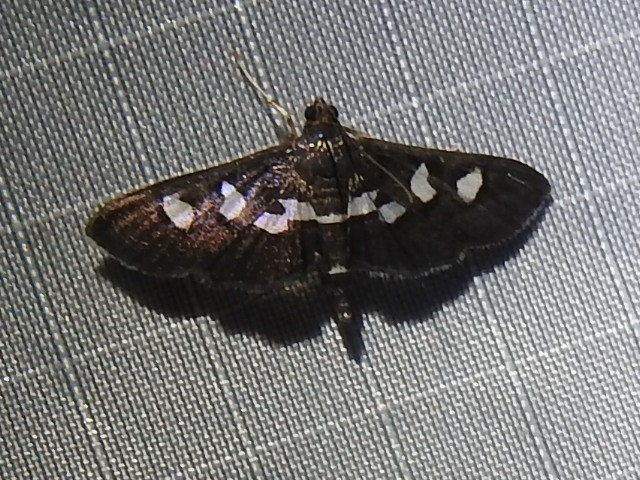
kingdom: Animalia
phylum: Arthropoda
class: Insecta
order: Lepidoptera
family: Crambidae
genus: Desmia
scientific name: Desmia
